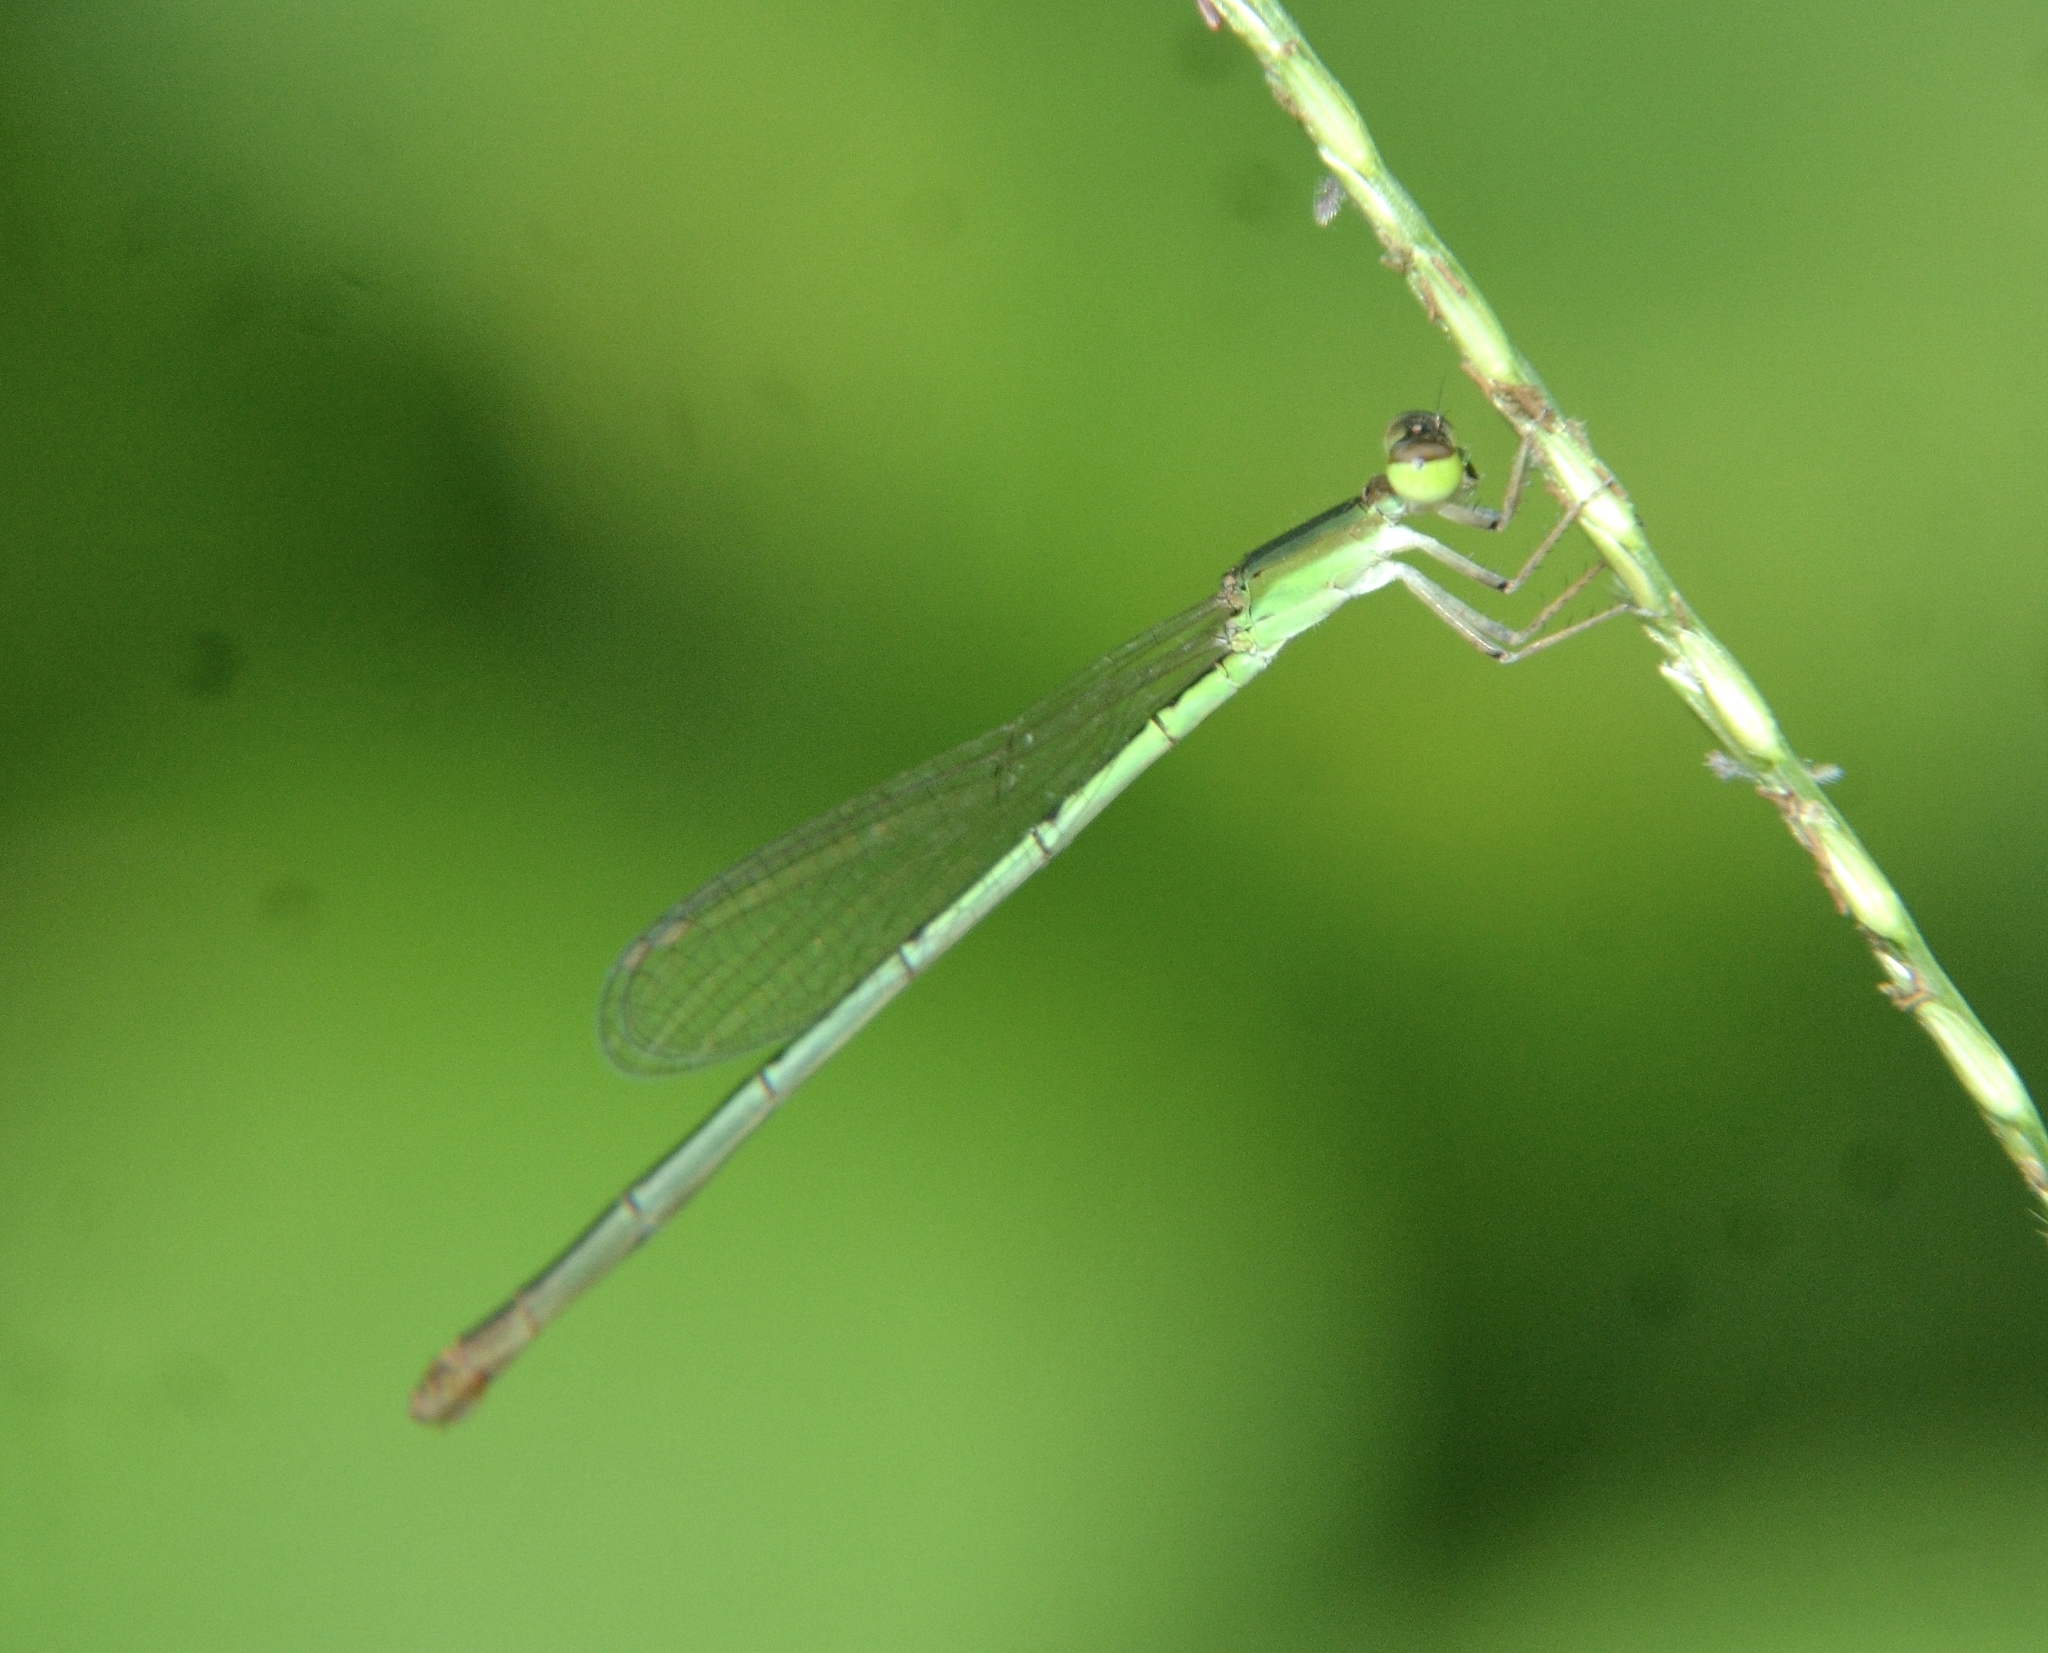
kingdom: Animalia
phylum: Arthropoda
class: Insecta
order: Odonata
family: Coenagrionidae
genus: Agriocnemis
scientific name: Agriocnemis pygmaea
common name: Pygmy wisp
